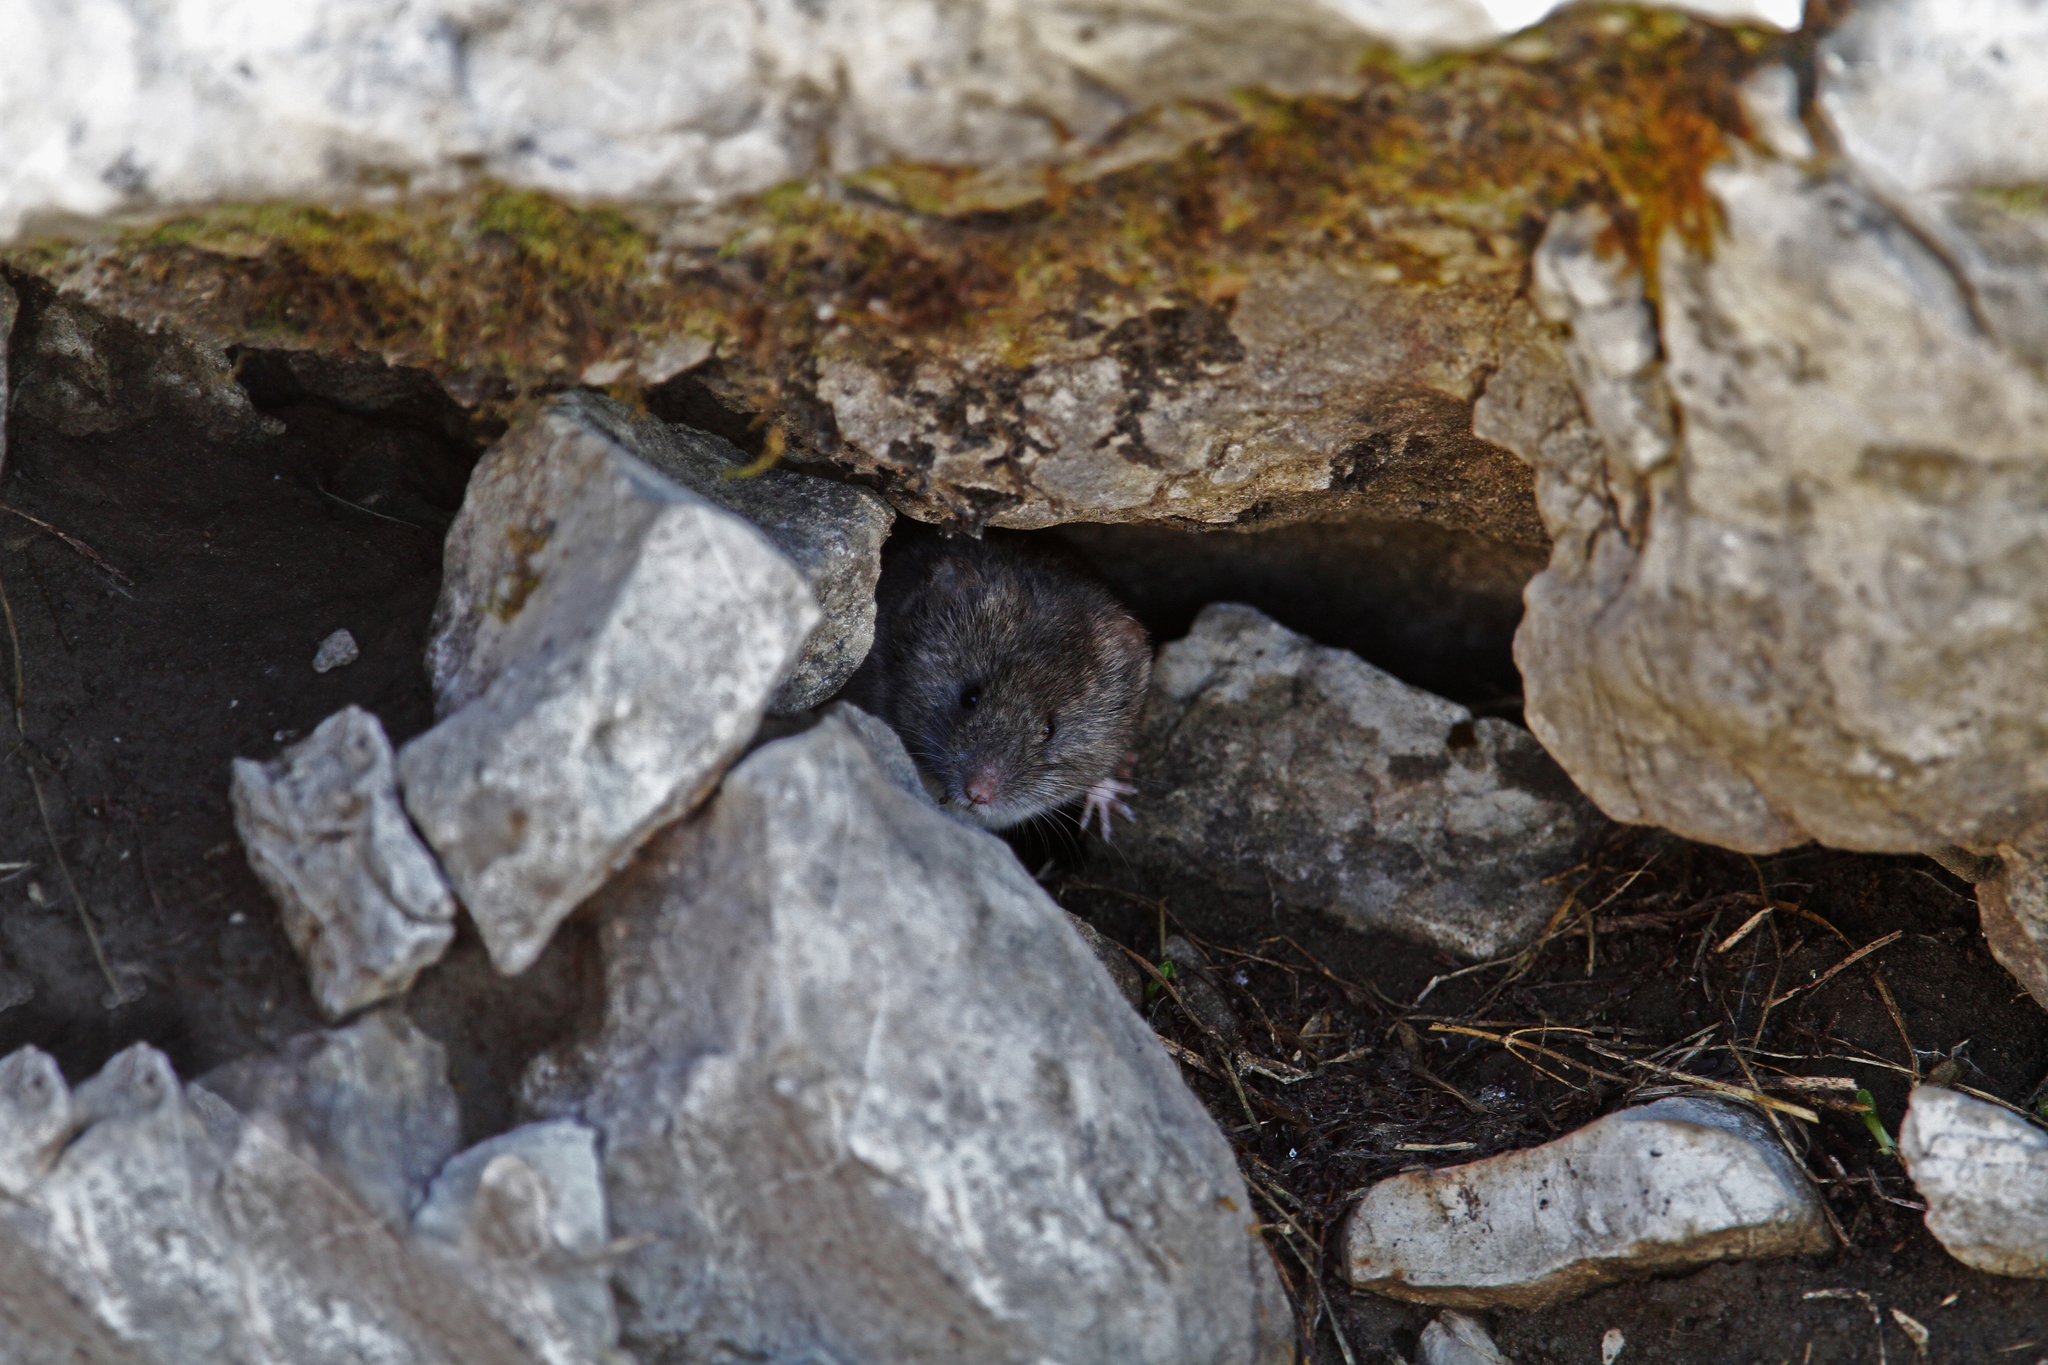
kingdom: Animalia
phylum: Chordata
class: Mammalia
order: Rodentia
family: Cricetidae
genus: Chionomys
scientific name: Chionomys nivalis
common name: European snow vole
